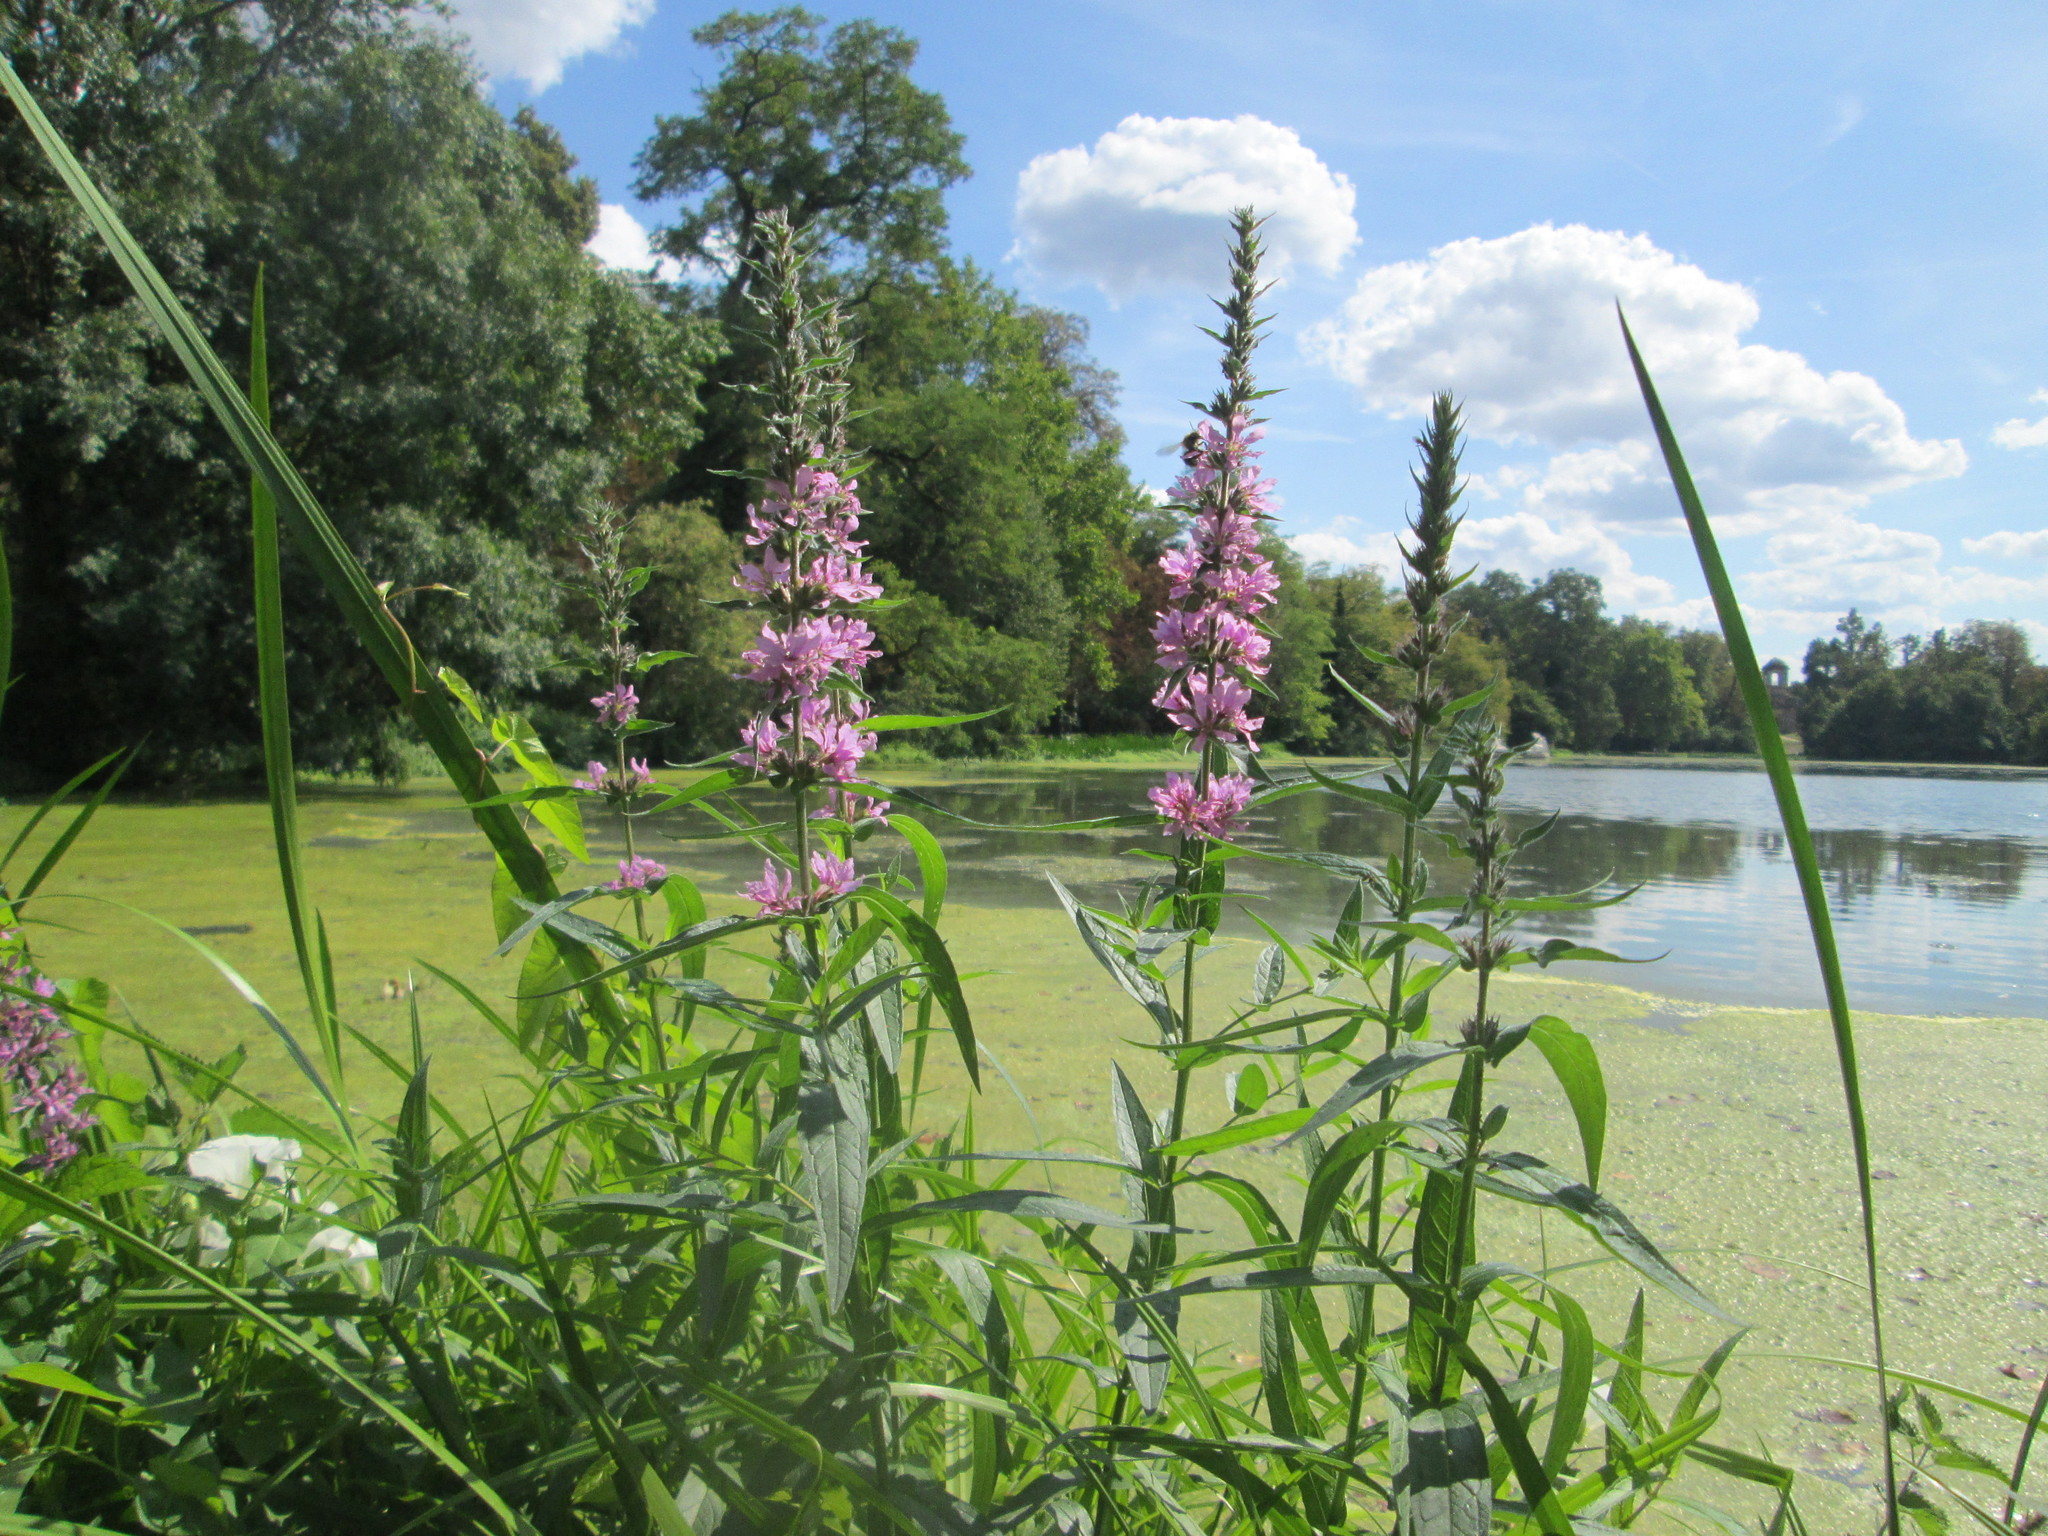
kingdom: Plantae
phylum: Tracheophyta
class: Magnoliopsida
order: Myrtales
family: Lythraceae
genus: Lythrum
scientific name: Lythrum salicaria
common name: Purple loosestrife
